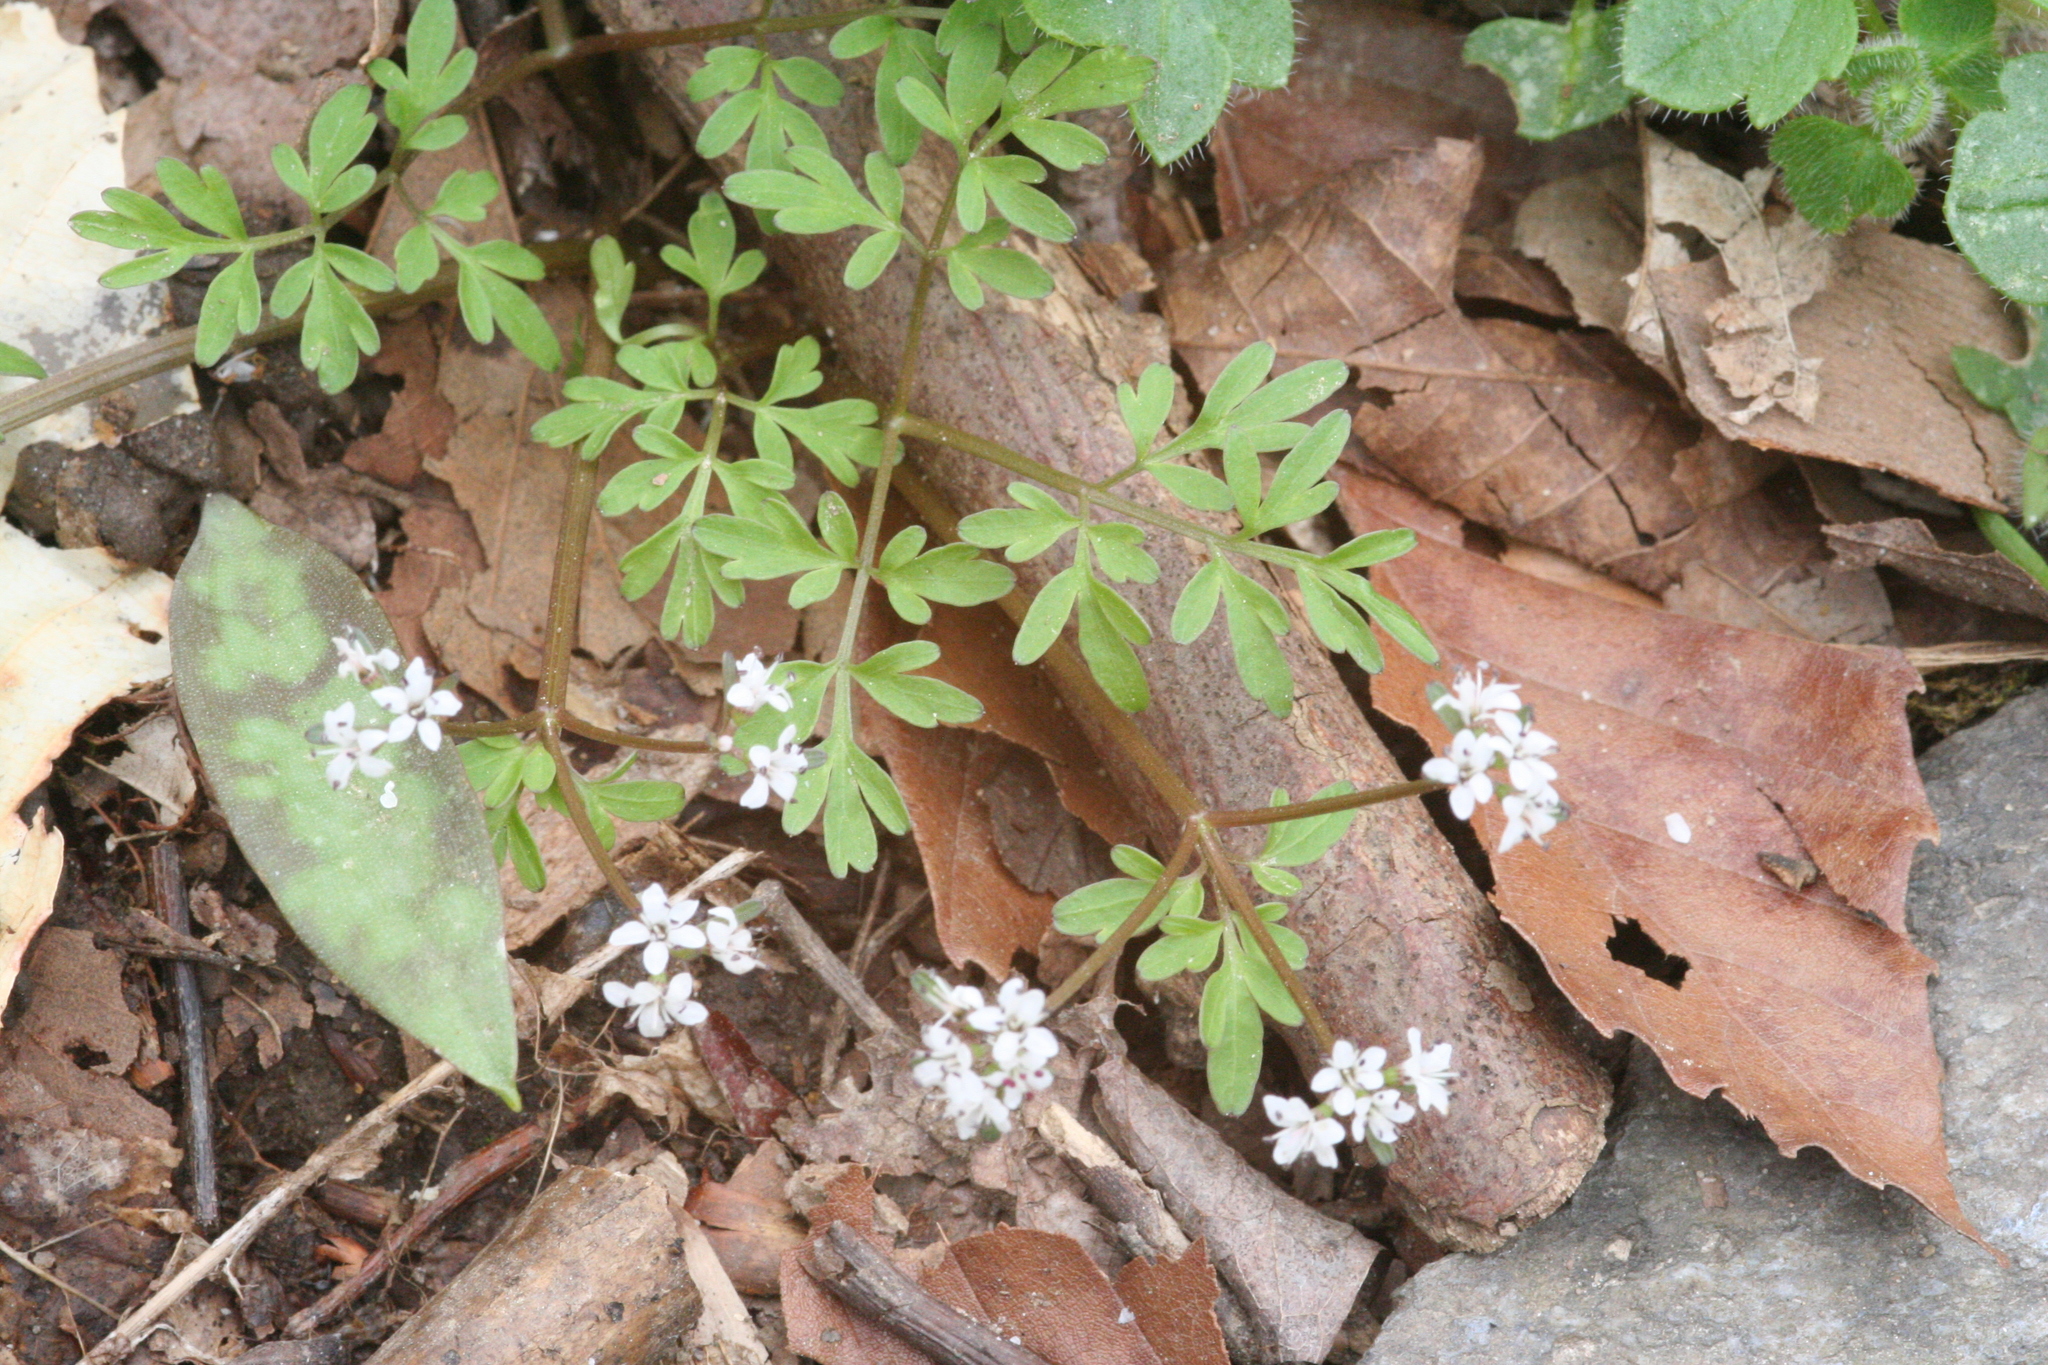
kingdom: Plantae
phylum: Tracheophyta
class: Magnoliopsida
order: Apiales
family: Apiaceae
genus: Erigenia
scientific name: Erigenia bulbosa
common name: Pepper-and-salt
